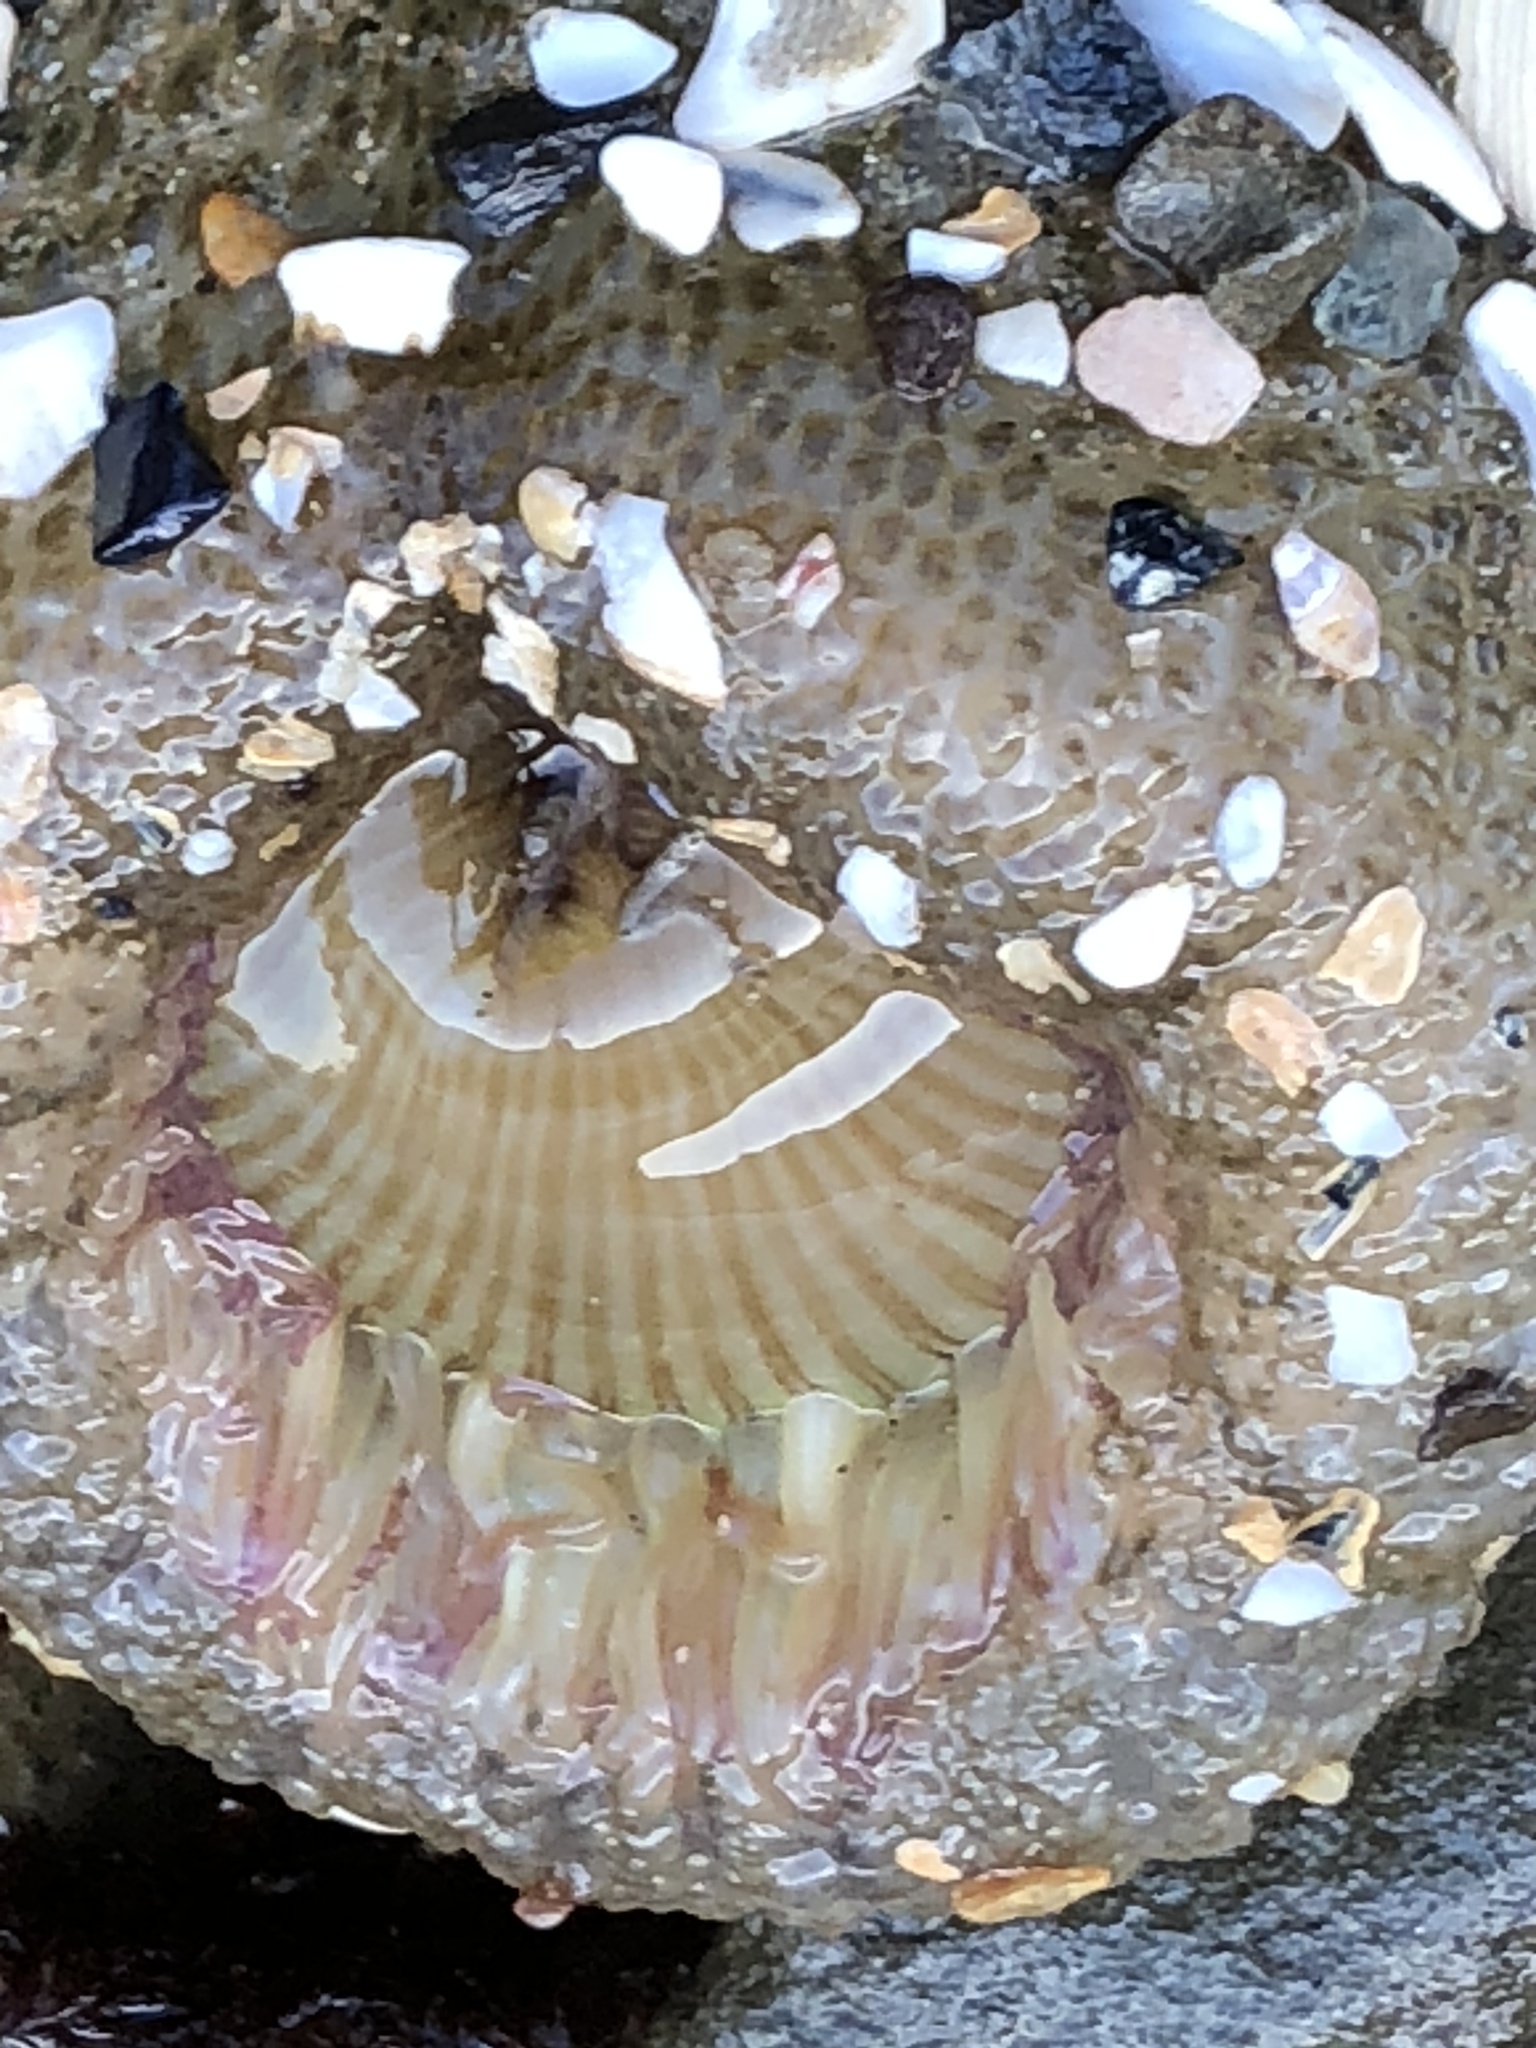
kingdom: Animalia
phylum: Cnidaria
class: Anthozoa
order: Actiniaria
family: Actiniidae
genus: Anthopleura
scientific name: Anthopleura sola
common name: Sun anemone
